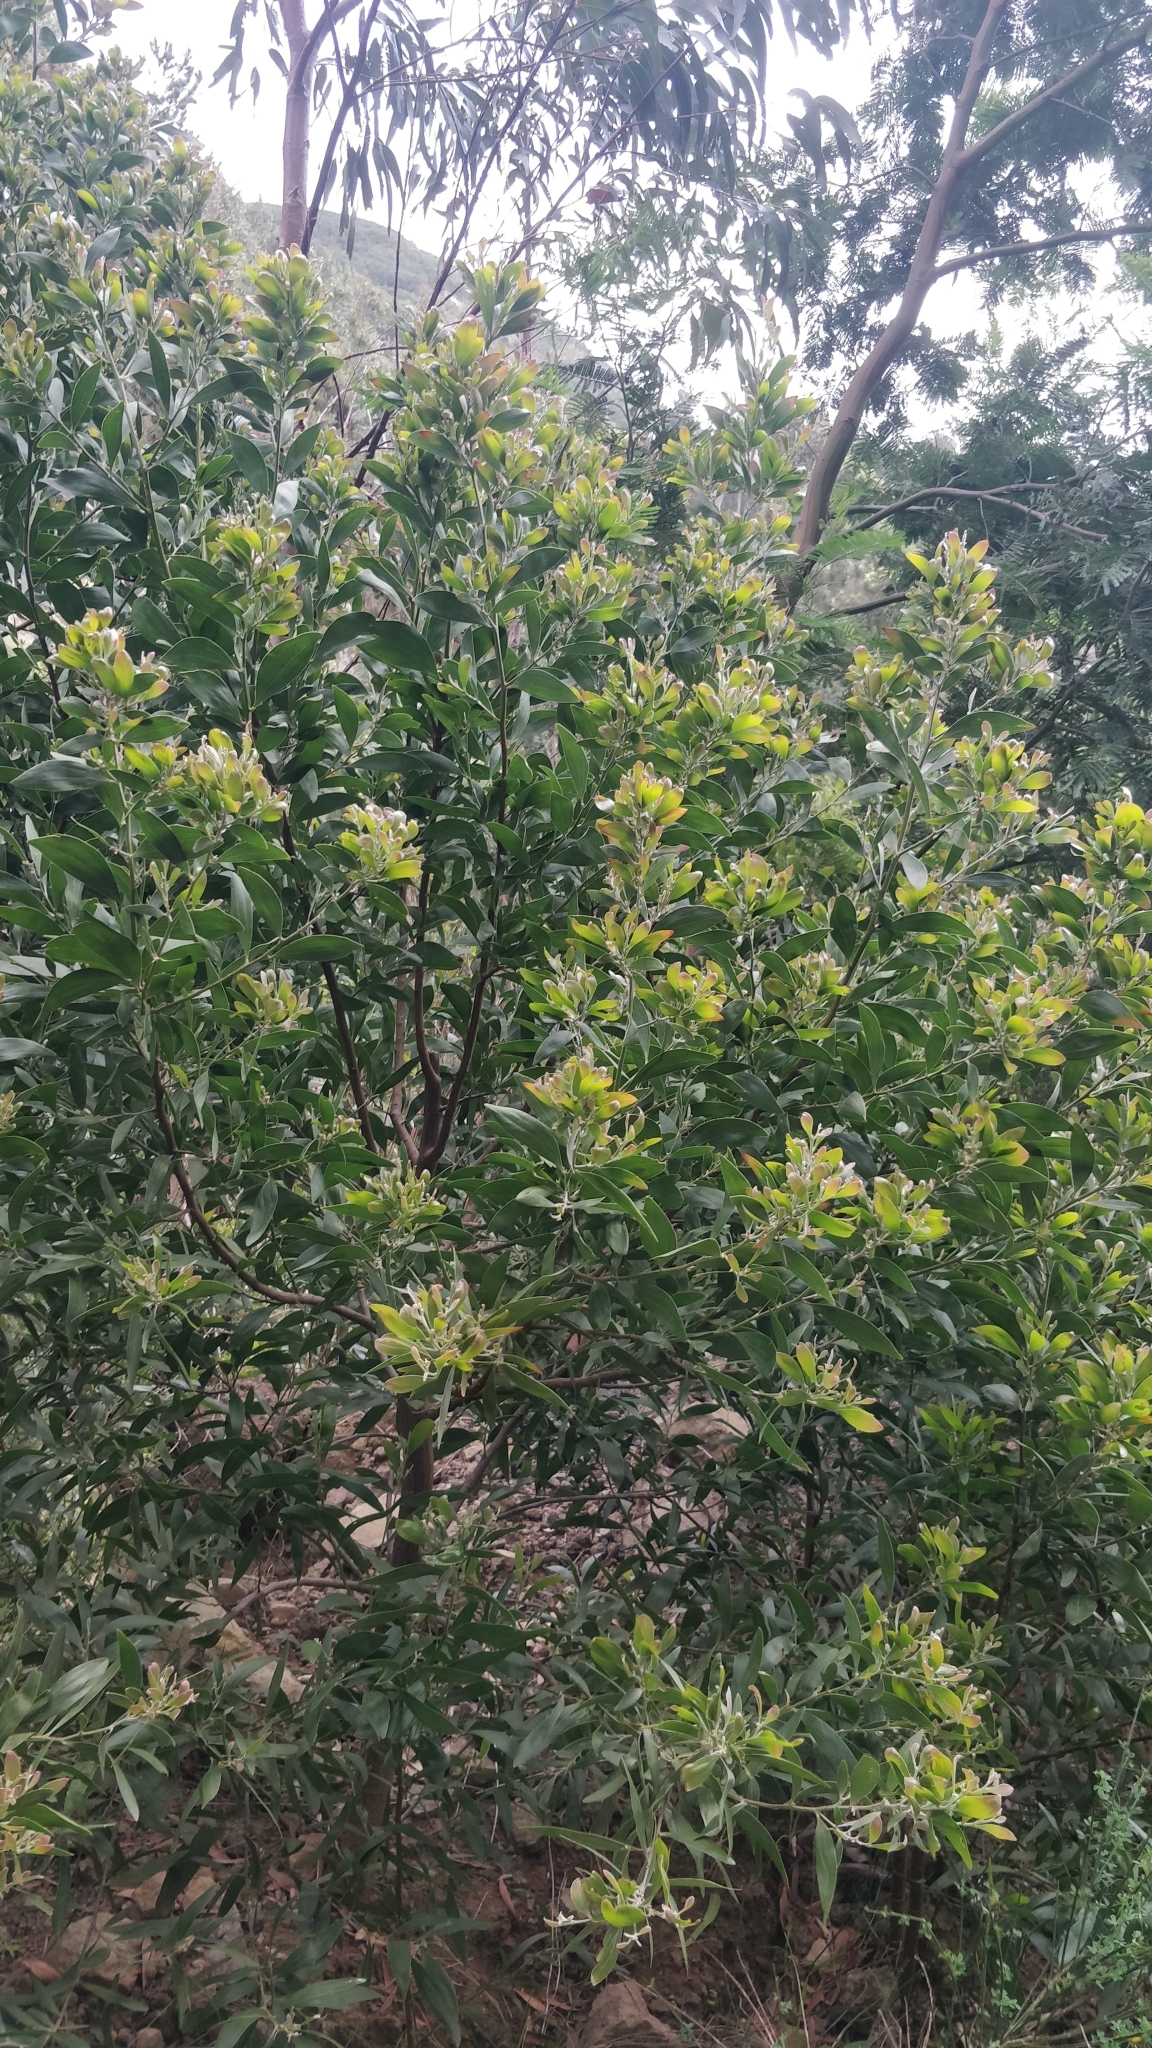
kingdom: Plantae
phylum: Tracheophyta
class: Magnoliopsida
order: Fabales
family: Fabaceae
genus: Acacia
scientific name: Acacia melanoxylon
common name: Blackwood
